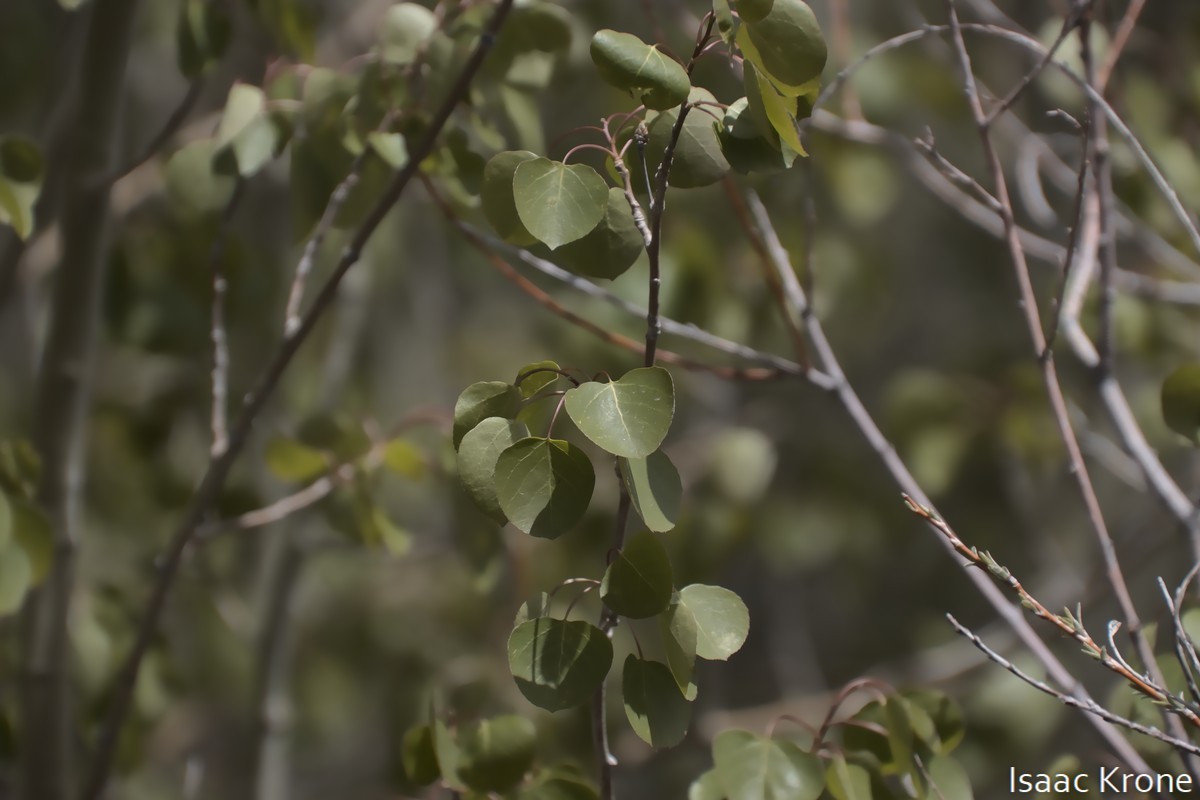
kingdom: Plantae
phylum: Tracheophyta
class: Magnoliopsida
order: Malpighiales
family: Salicaceae
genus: Populus
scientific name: Populus tremuloides
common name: Quaking aspen
